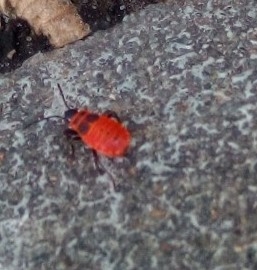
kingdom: Animalia
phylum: Arthropoda
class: Insecta
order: Hemiptera
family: Pyrrhocoridae
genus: Pyrrhocoris
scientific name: Pyrrhocoris apterus
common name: Firebug
